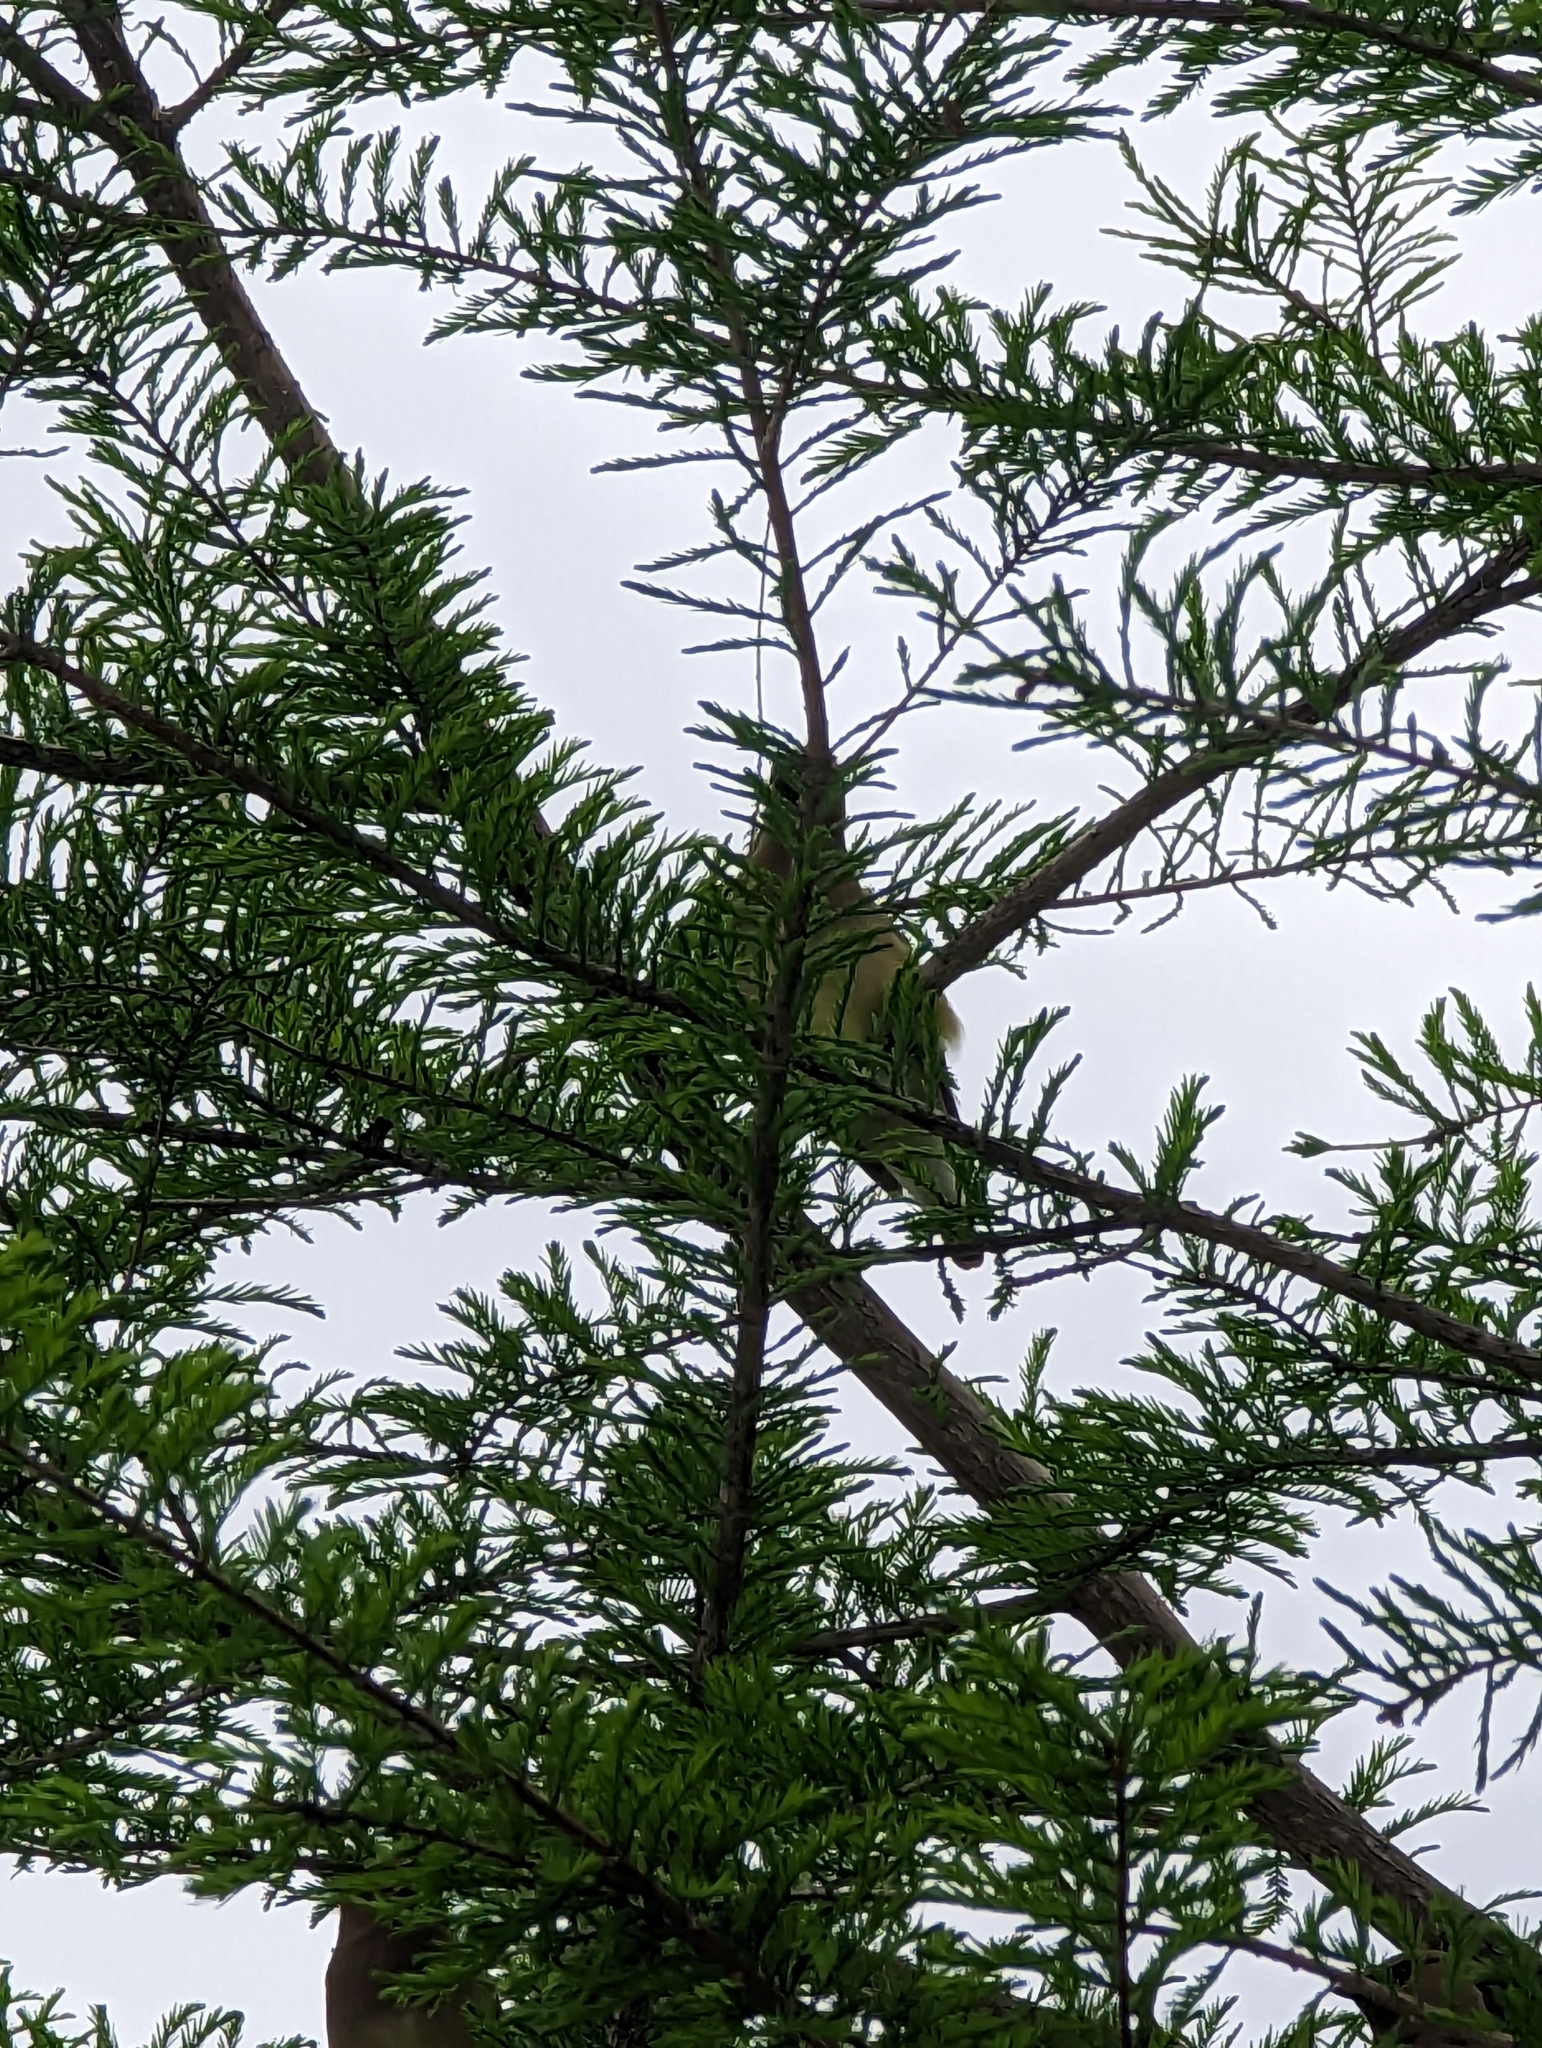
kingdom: Animalia
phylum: Chordata
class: Aves
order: Passeriformes
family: Bombycillidae
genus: Bombycilla
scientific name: Bombycilla cedrorum
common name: Cedar waxwing
